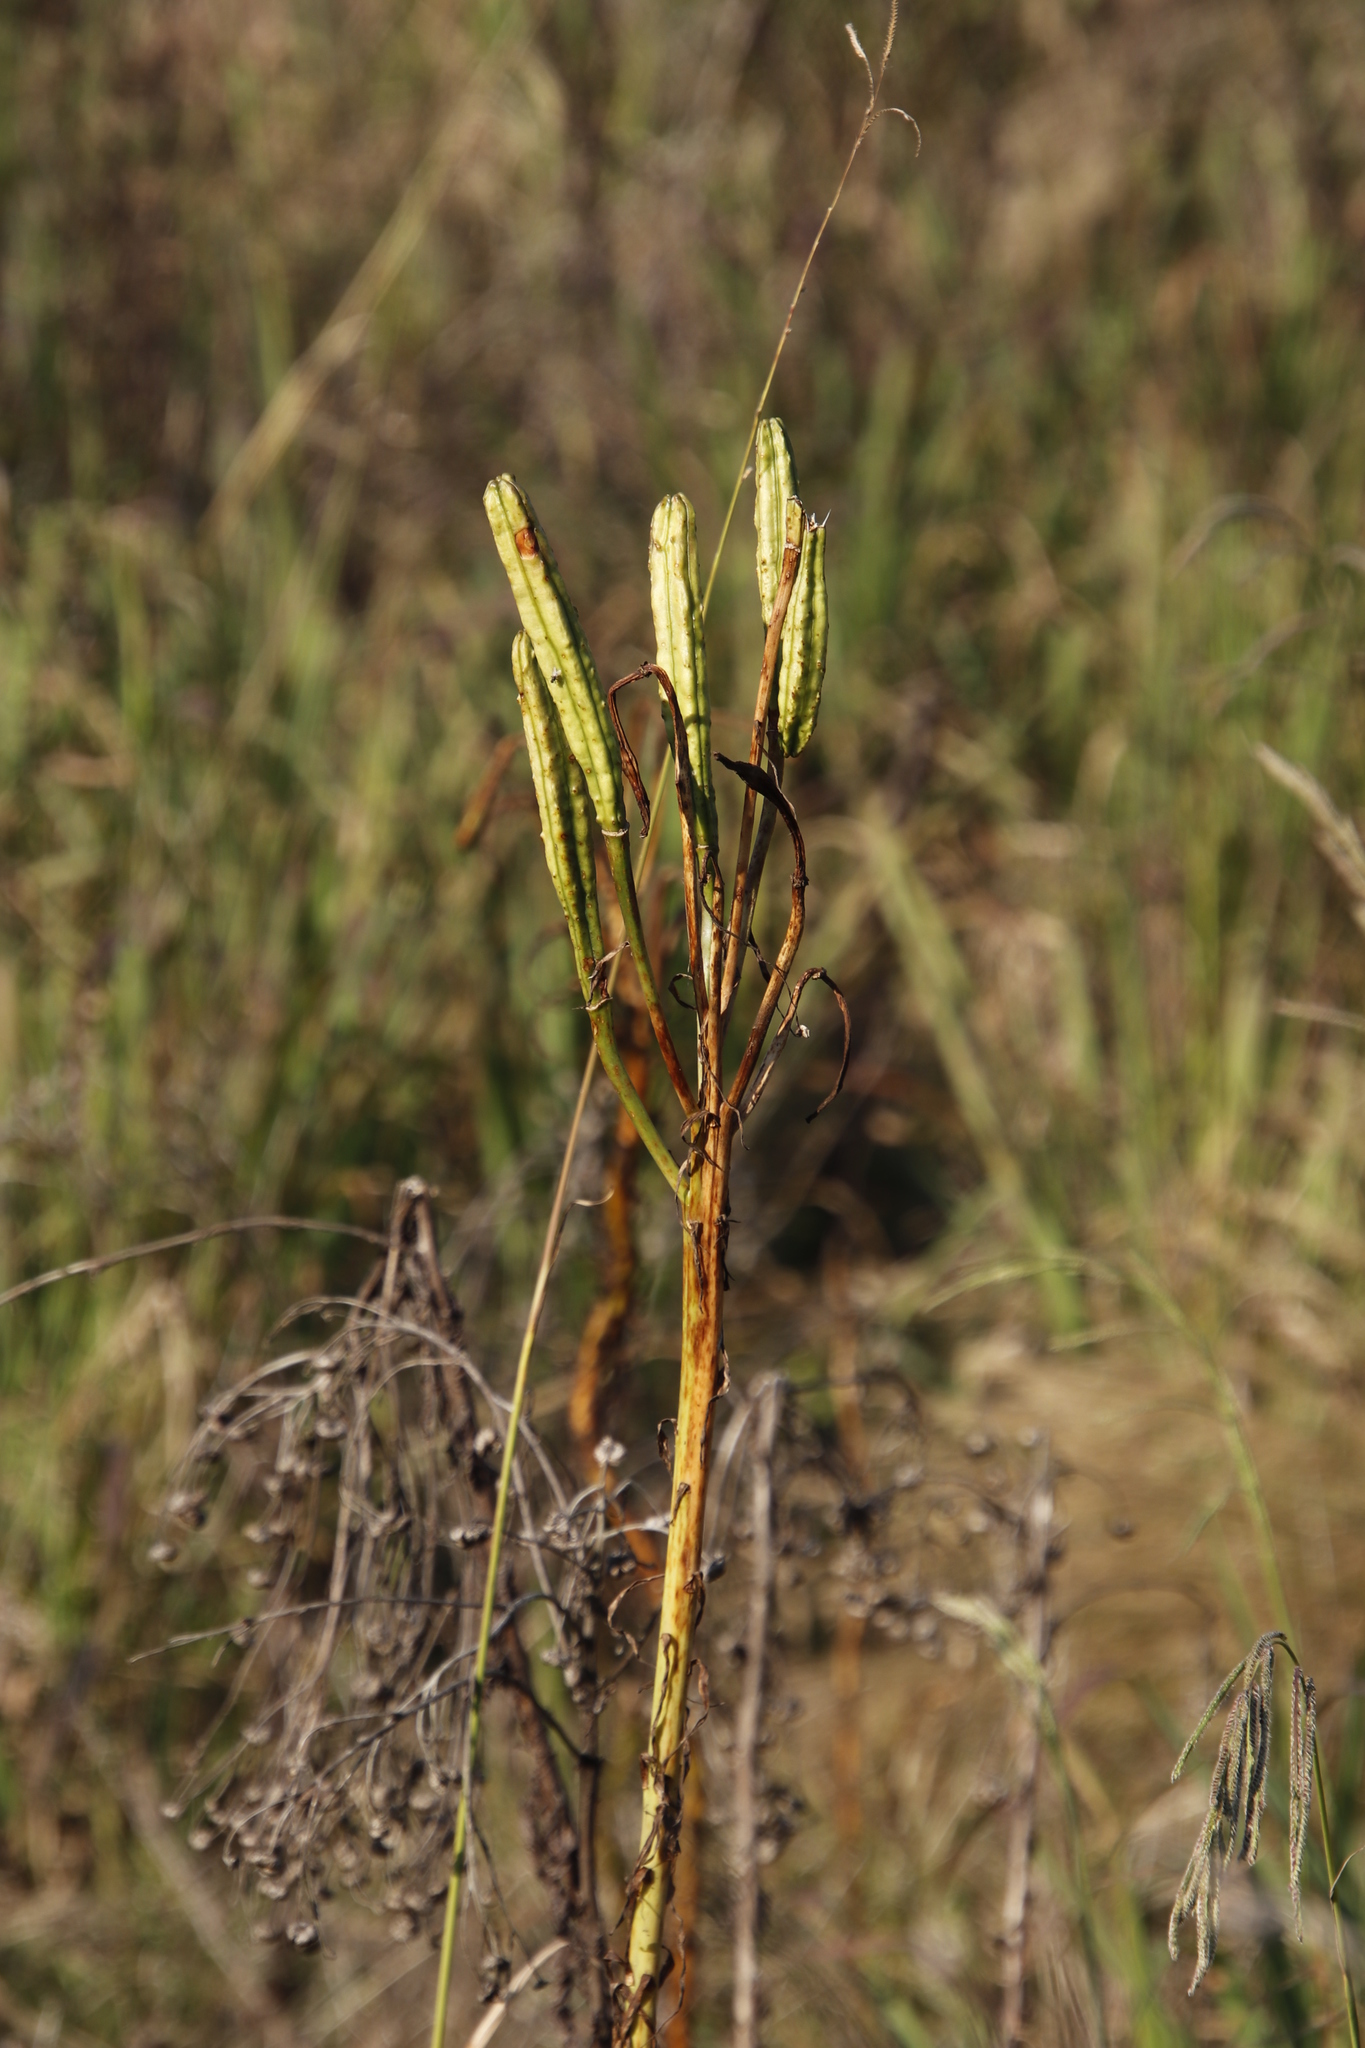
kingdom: Plantae
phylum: Tracheophyta
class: Liliopsida
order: Liliales
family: Liliaceae
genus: Lilium
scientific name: Lilium formosanum
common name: Formosa lily
